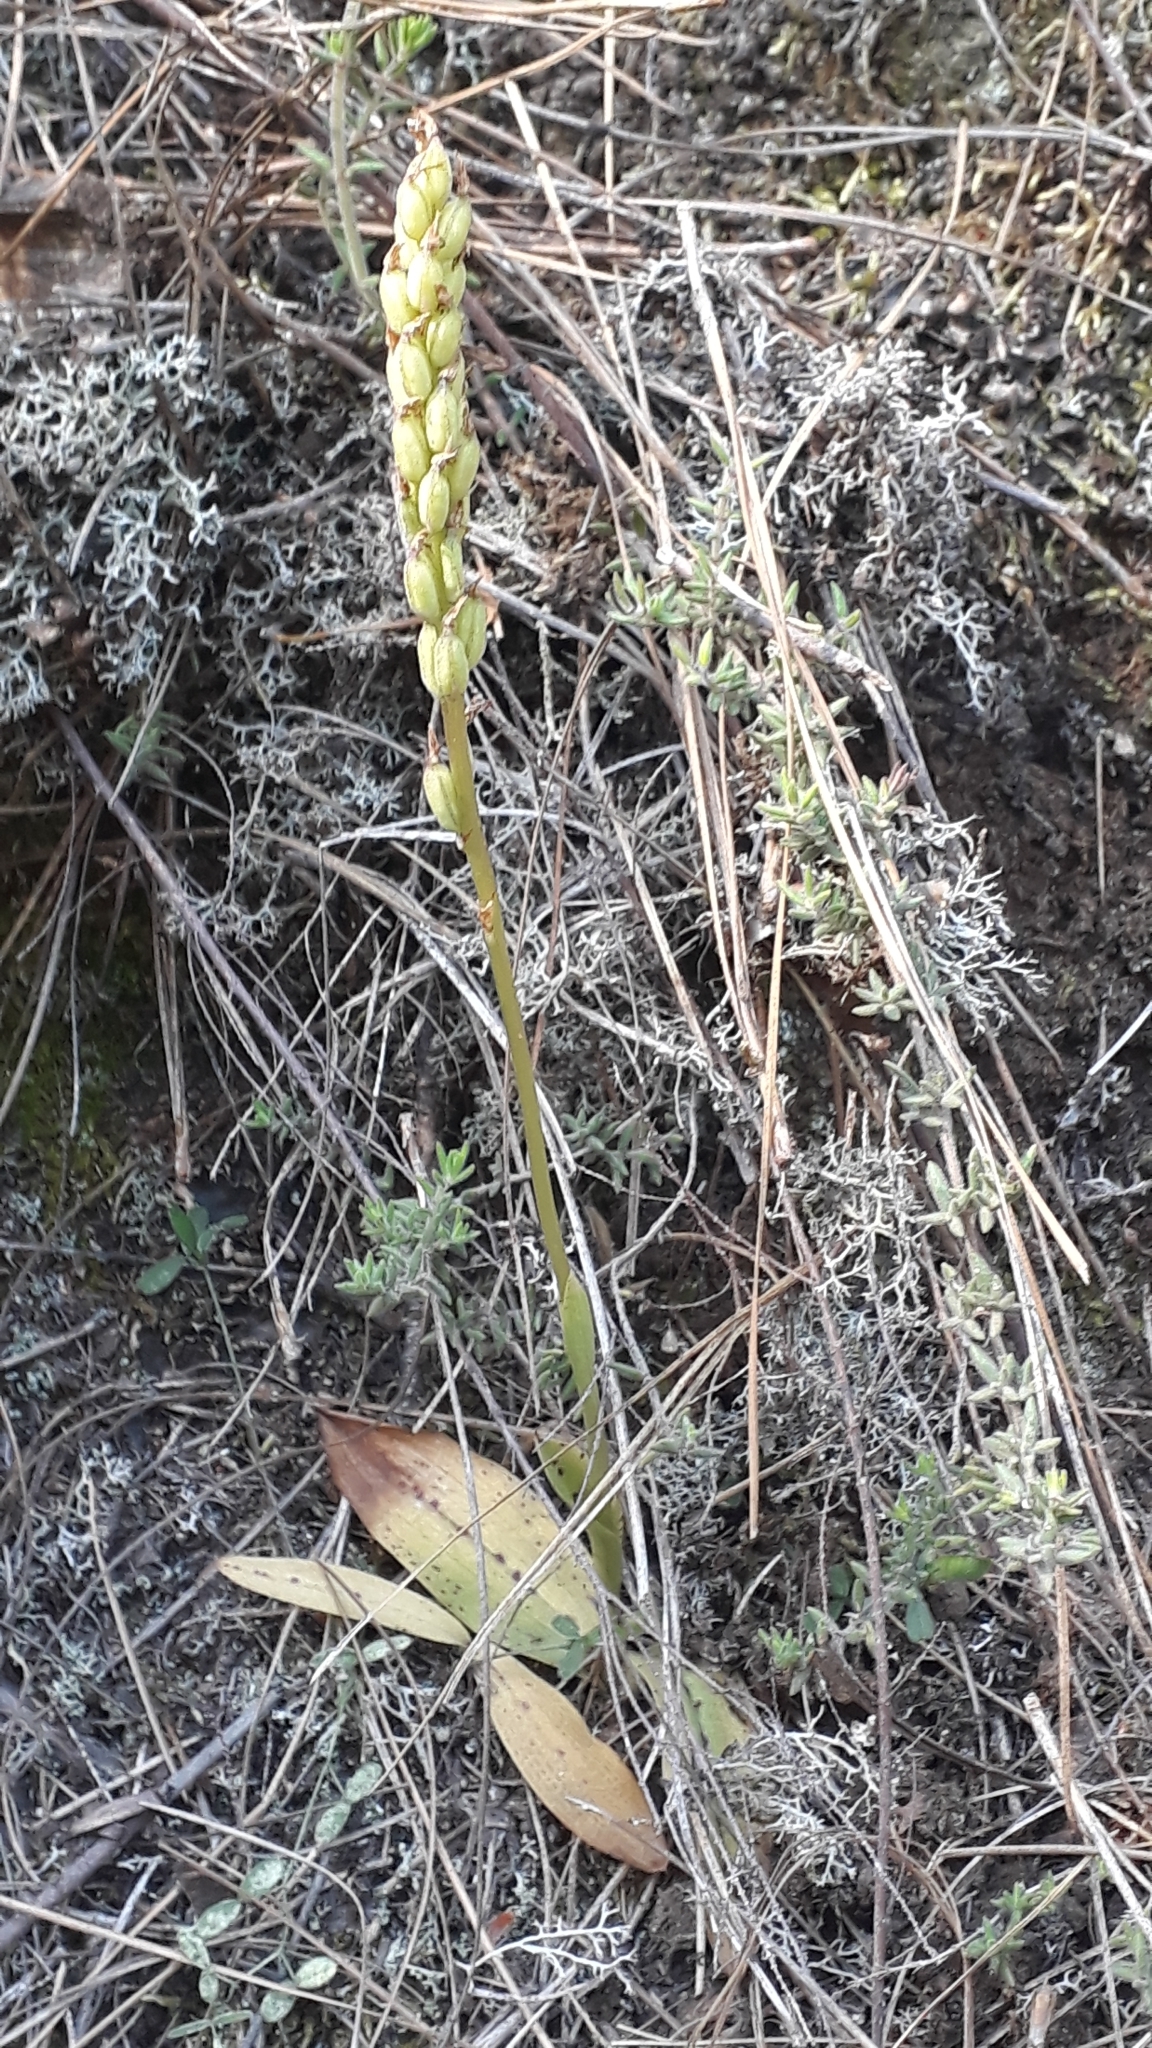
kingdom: Plantae
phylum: Tracheophyta
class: Liliopsida
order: Asparagales
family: Orchidaceae
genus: Neotinea
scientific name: Neotinea maculata
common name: Dense-flowered orchid
